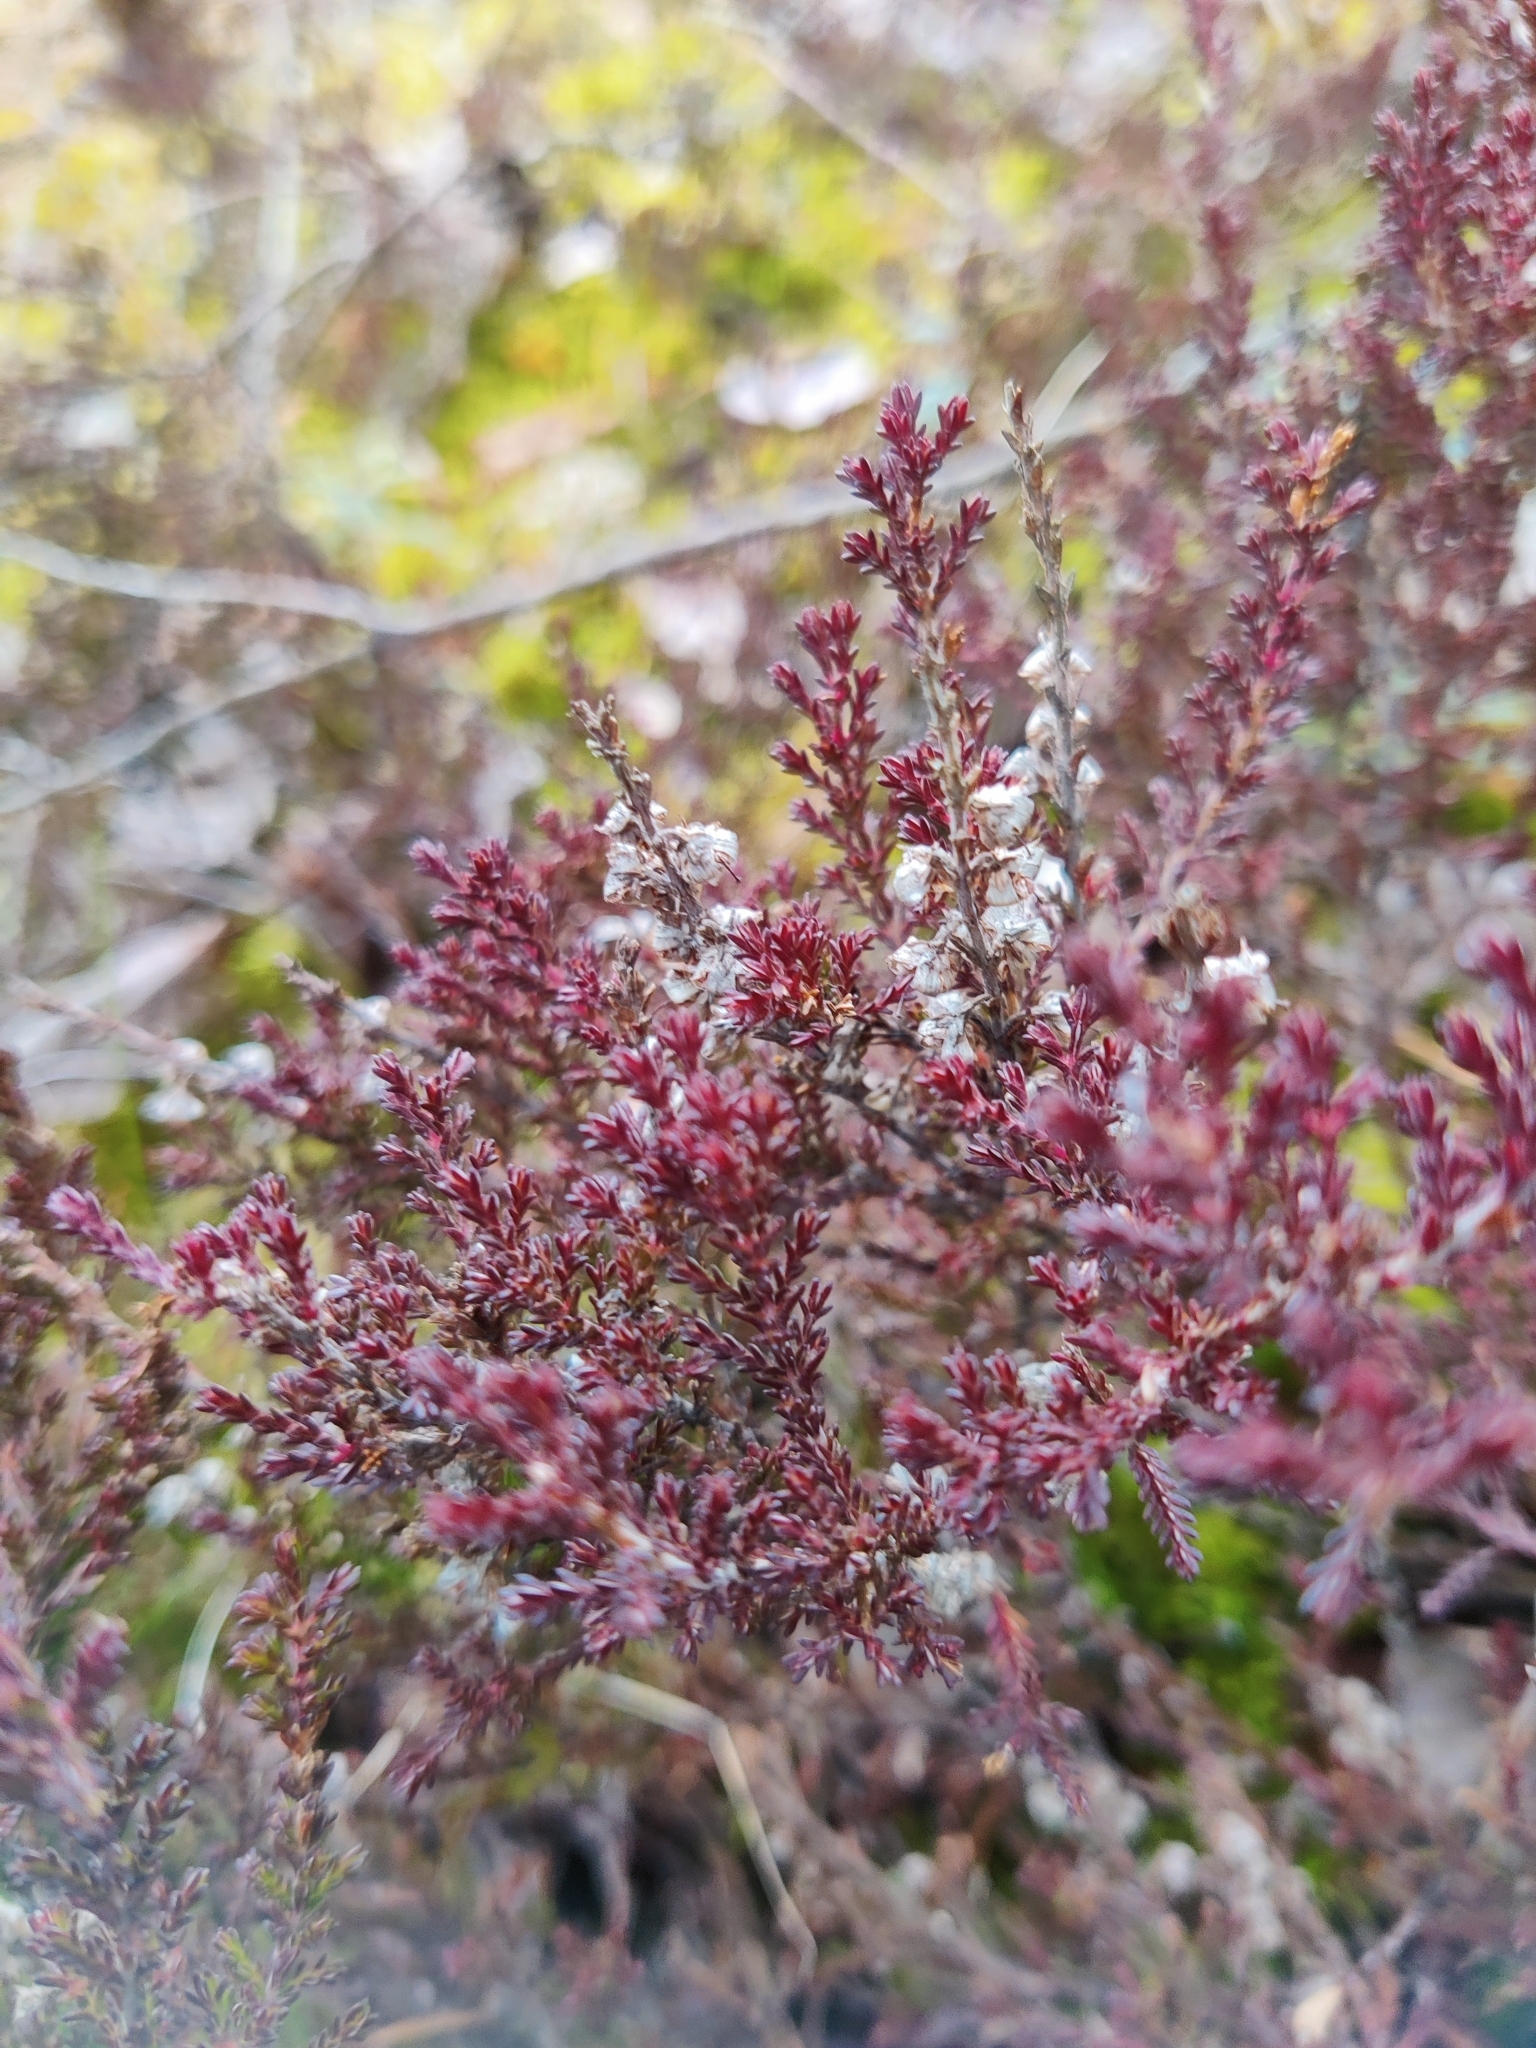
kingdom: Plantae
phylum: Tracheophyta
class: Magnoliopsida
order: Ericales
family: Ericaceae
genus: Calluna
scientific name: Calluna vulgaris
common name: Heather
